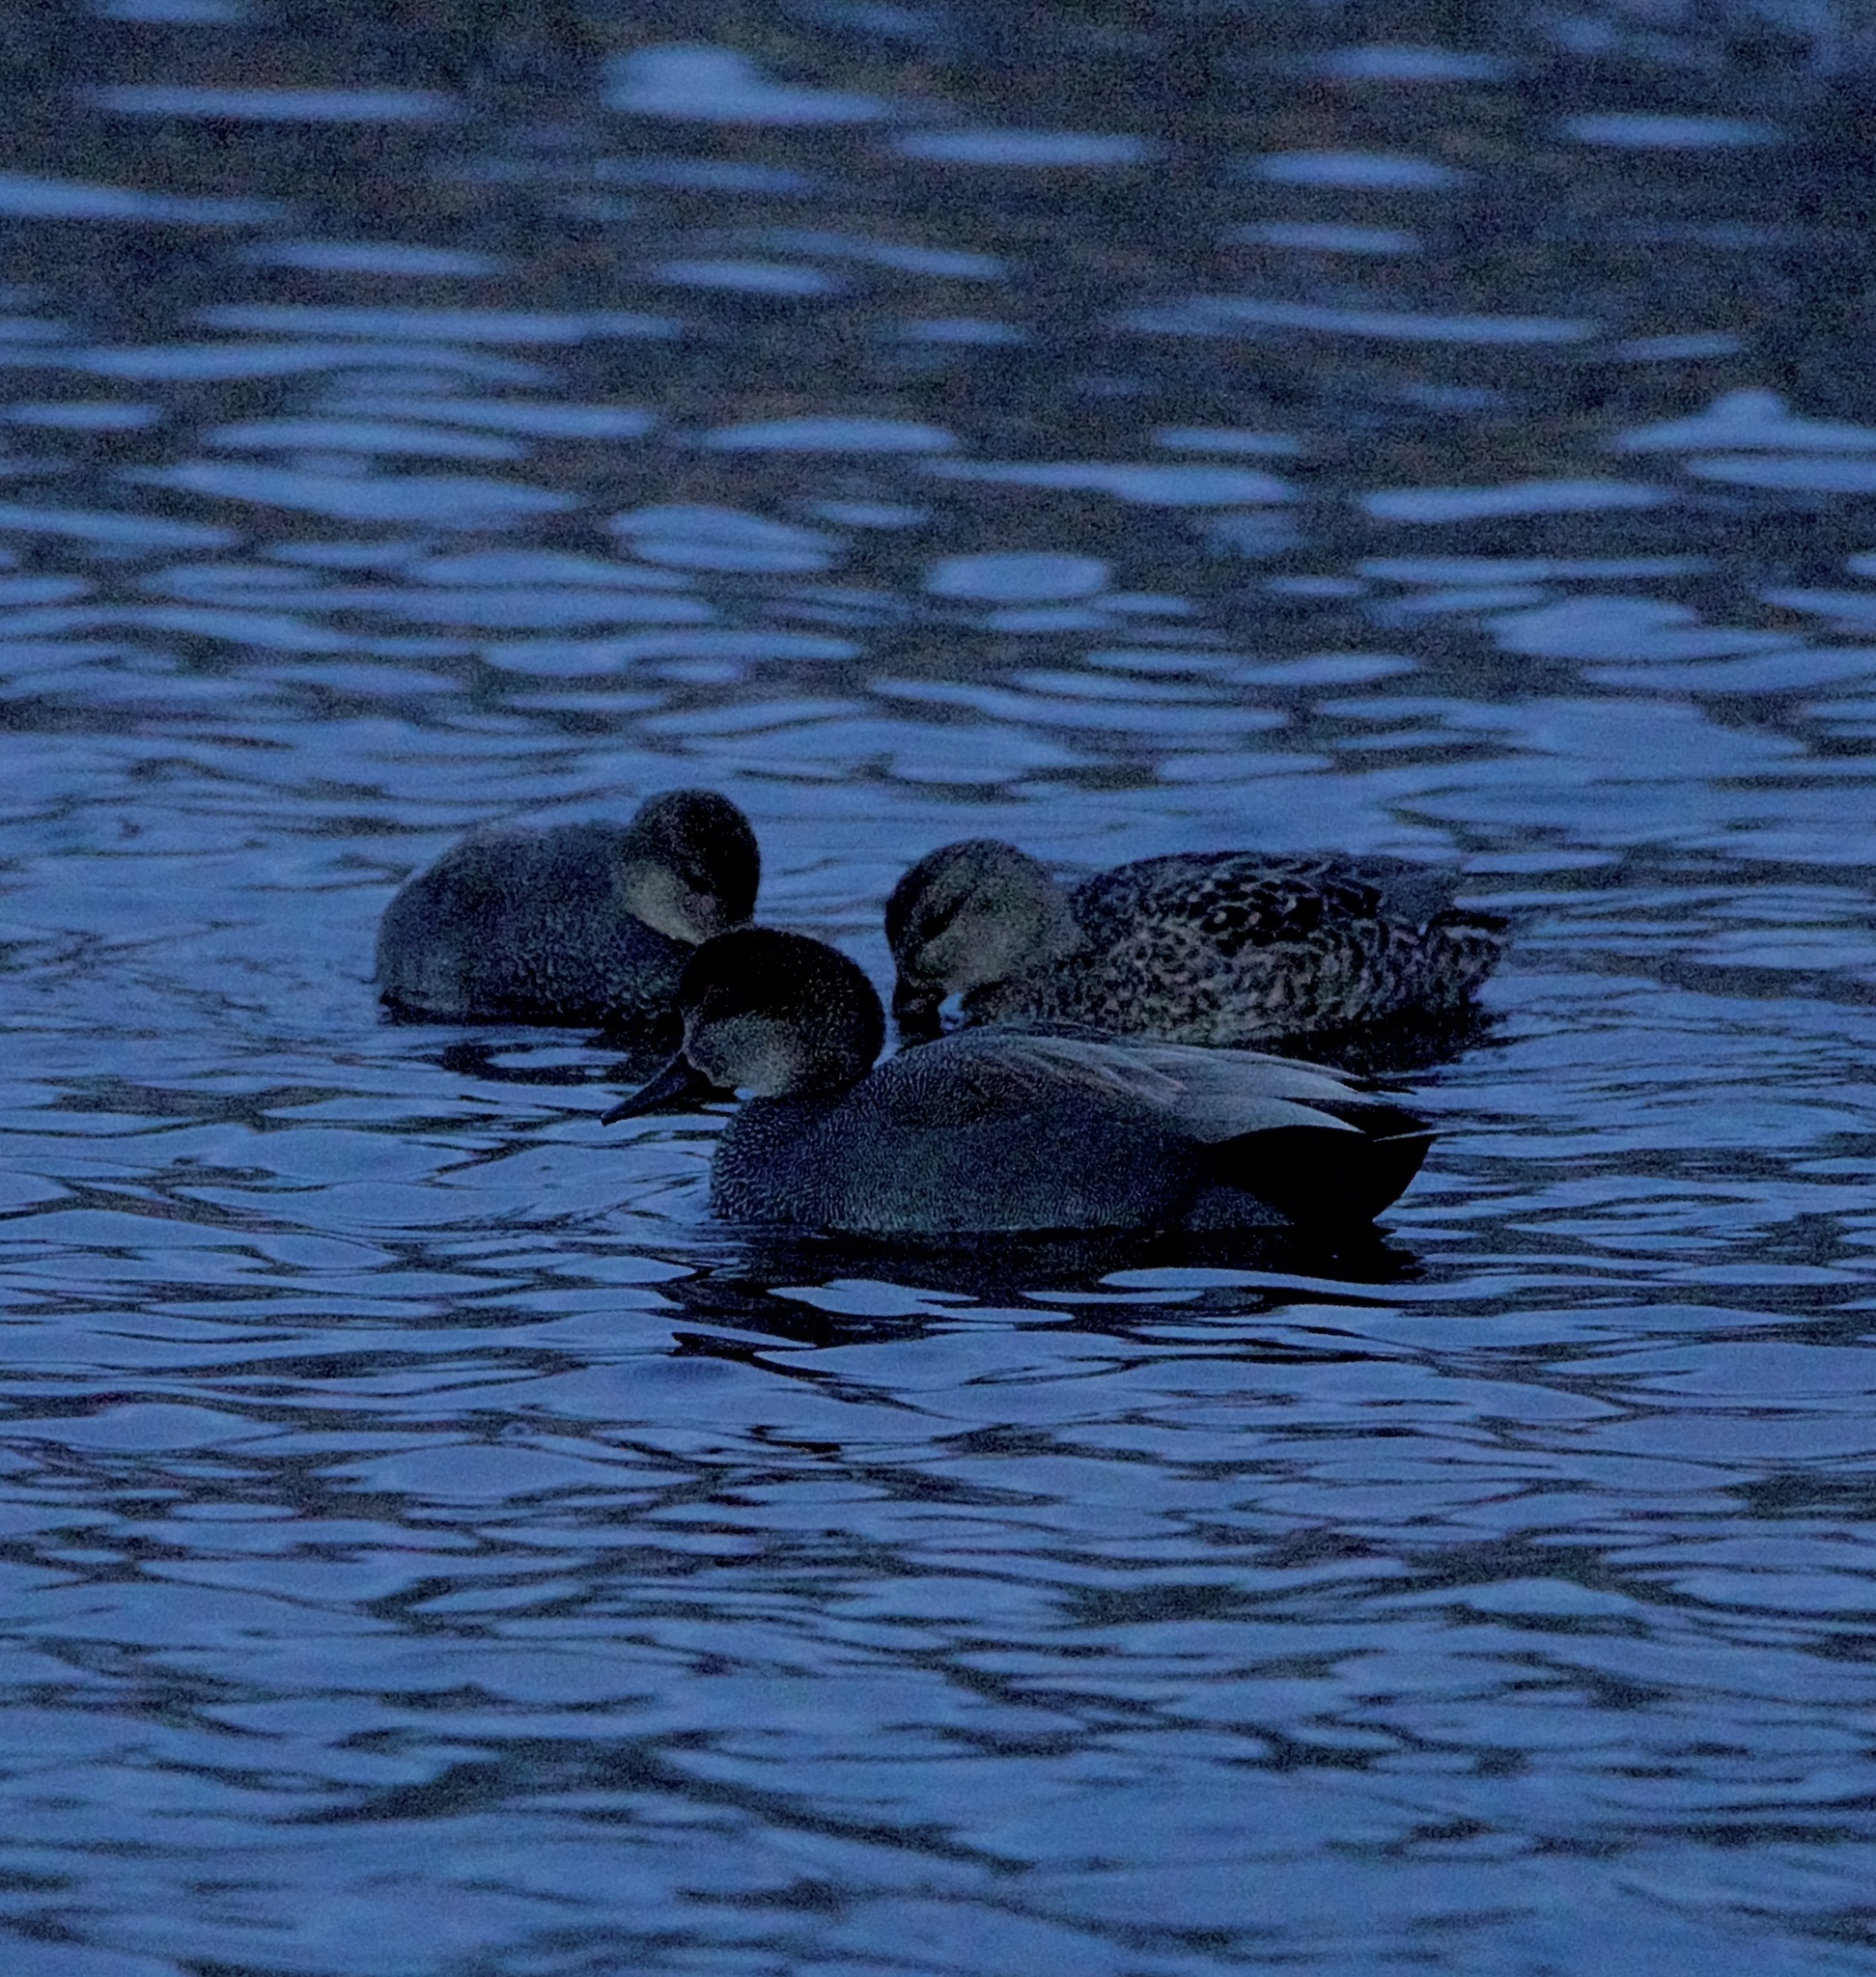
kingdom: Animalia
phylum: Chordata
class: Aves
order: Anseriformes
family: Anatidae
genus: Mareca
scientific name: Mareca strepera
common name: Gadwall
